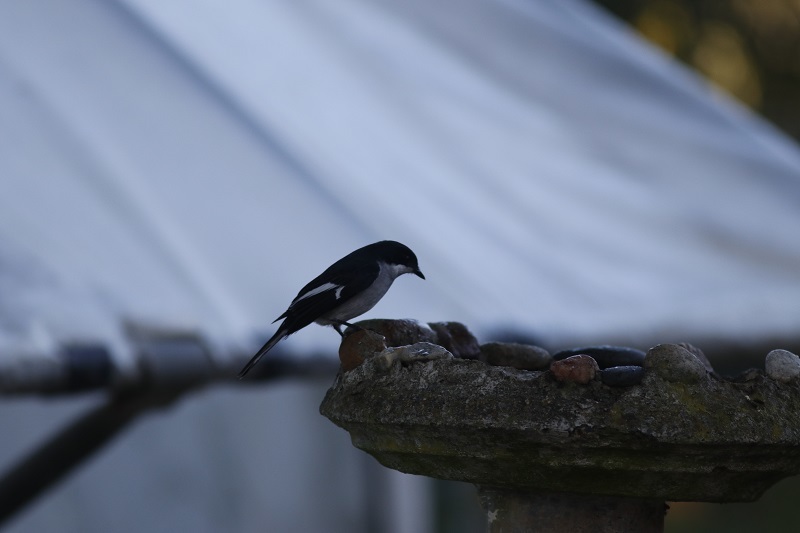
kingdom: Animalia
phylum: Chordata
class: Aves
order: Passeriformes
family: Muscicapidae
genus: Sigelus
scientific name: Sigelus silens
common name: Fiscal flycatcher
